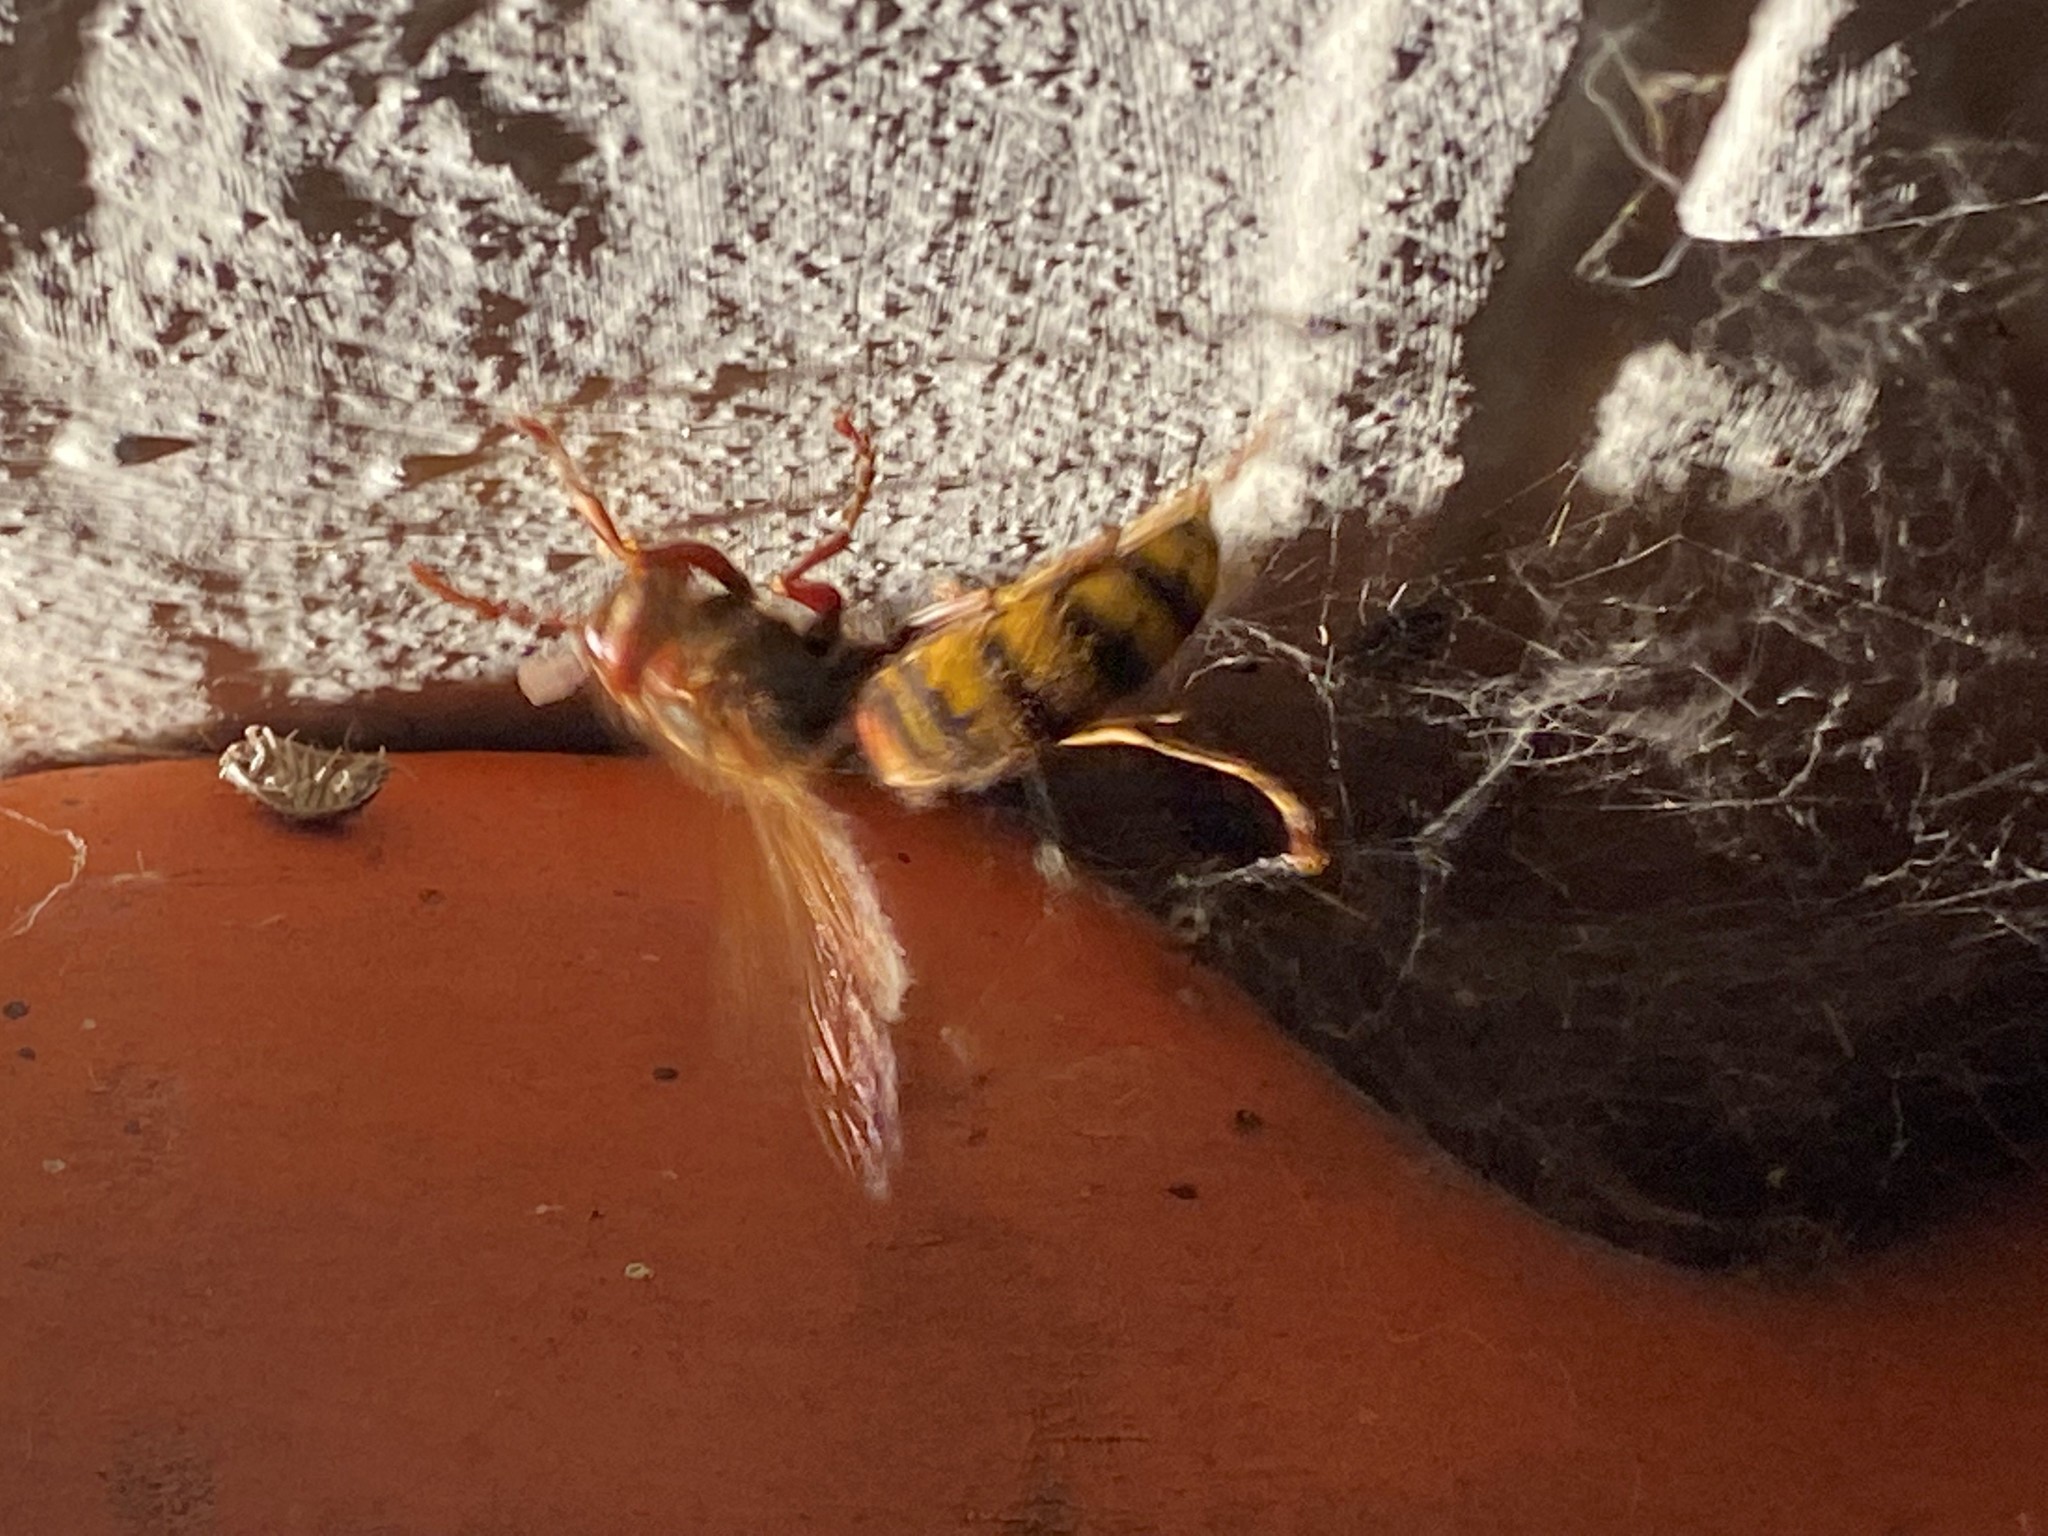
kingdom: Animalia
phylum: Arthropoda
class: Insecta
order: Hymenoptera
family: Vespidae
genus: Vespa
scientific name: Vespa crabro
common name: Hornet
